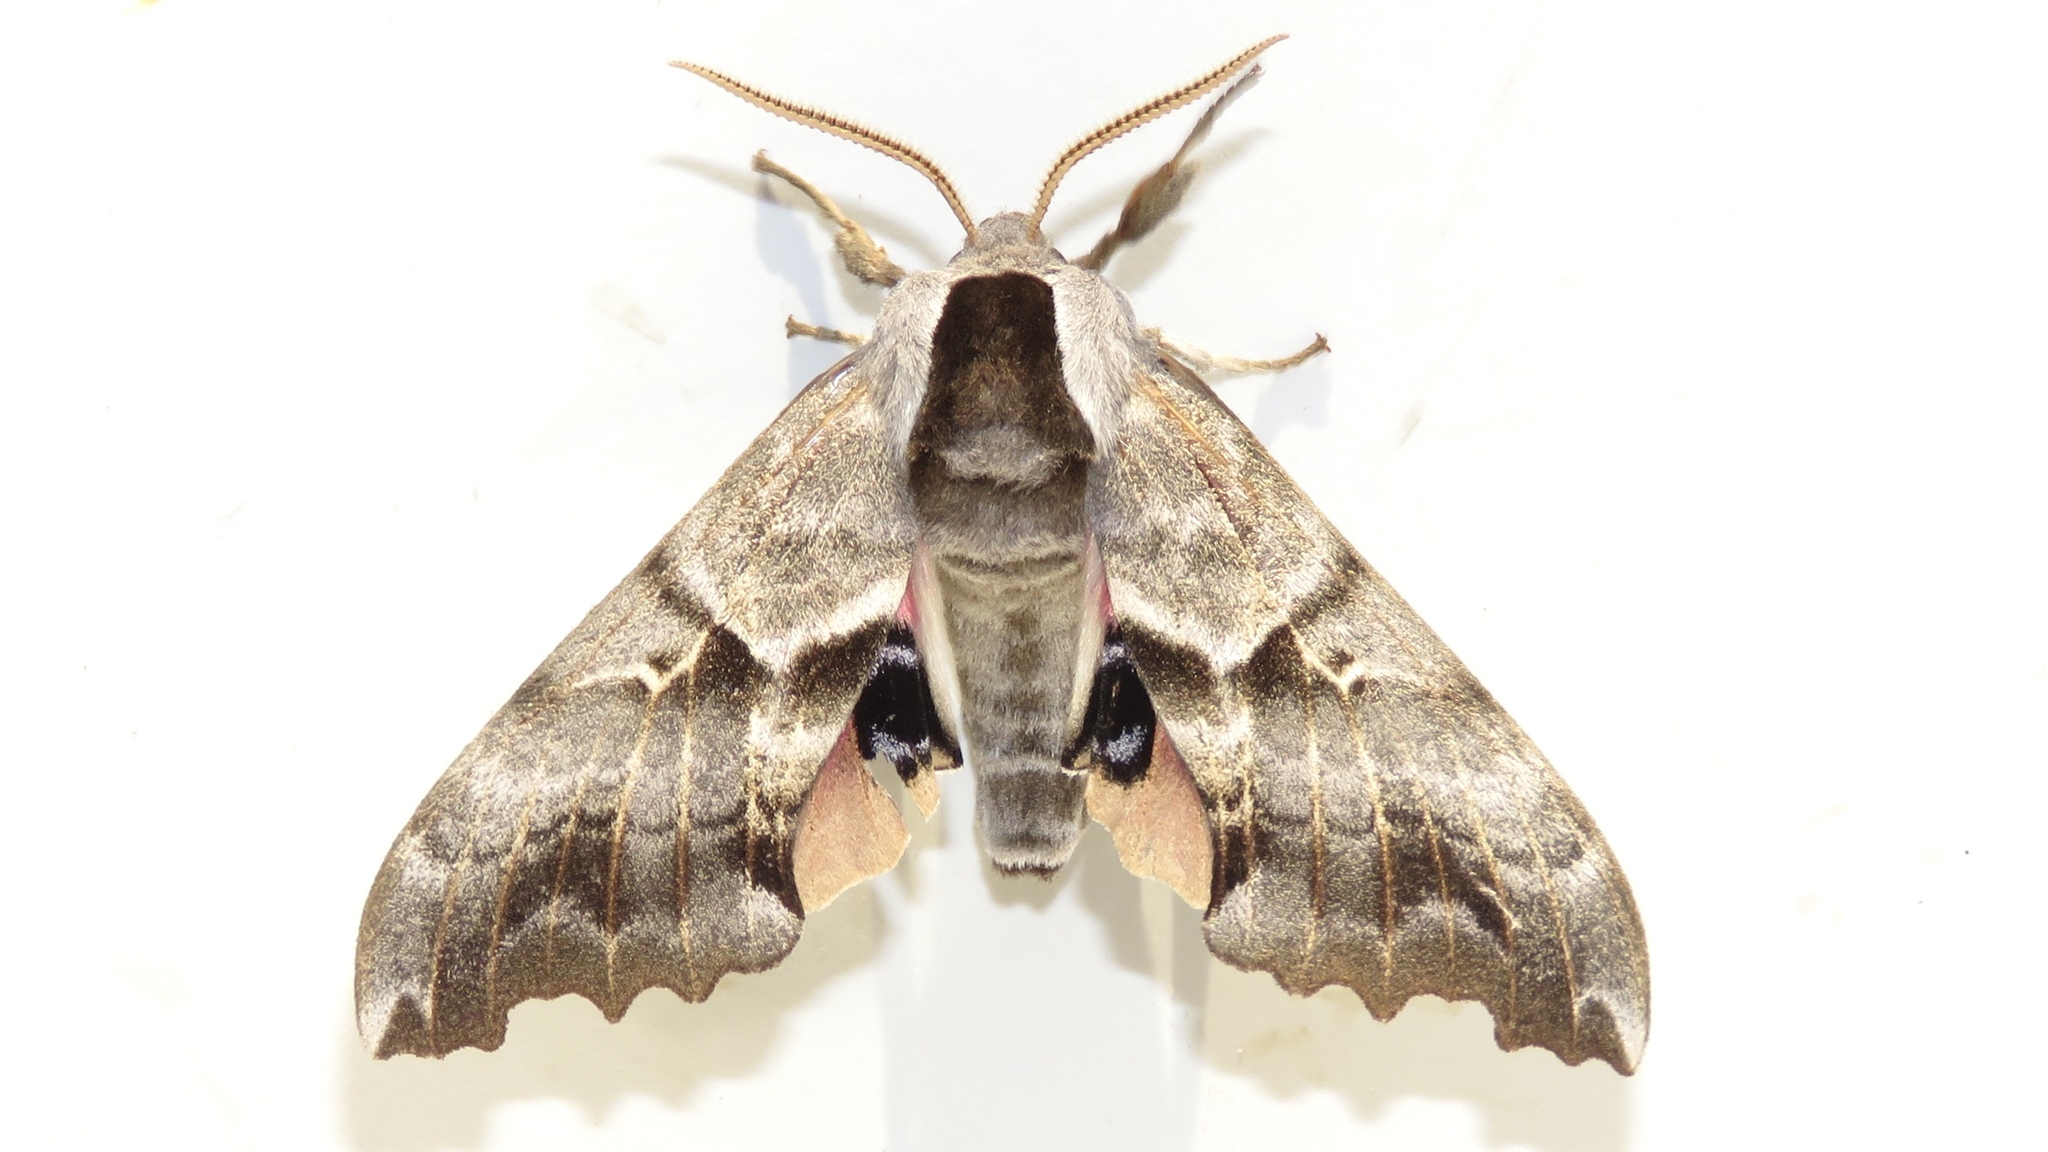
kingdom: Animalia
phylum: Arthropoda
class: Insecta
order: Lepidoptera
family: Sphingidae
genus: Smerinthus
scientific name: Smerinthus cerisyi
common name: Cerisy's sphinx moth
